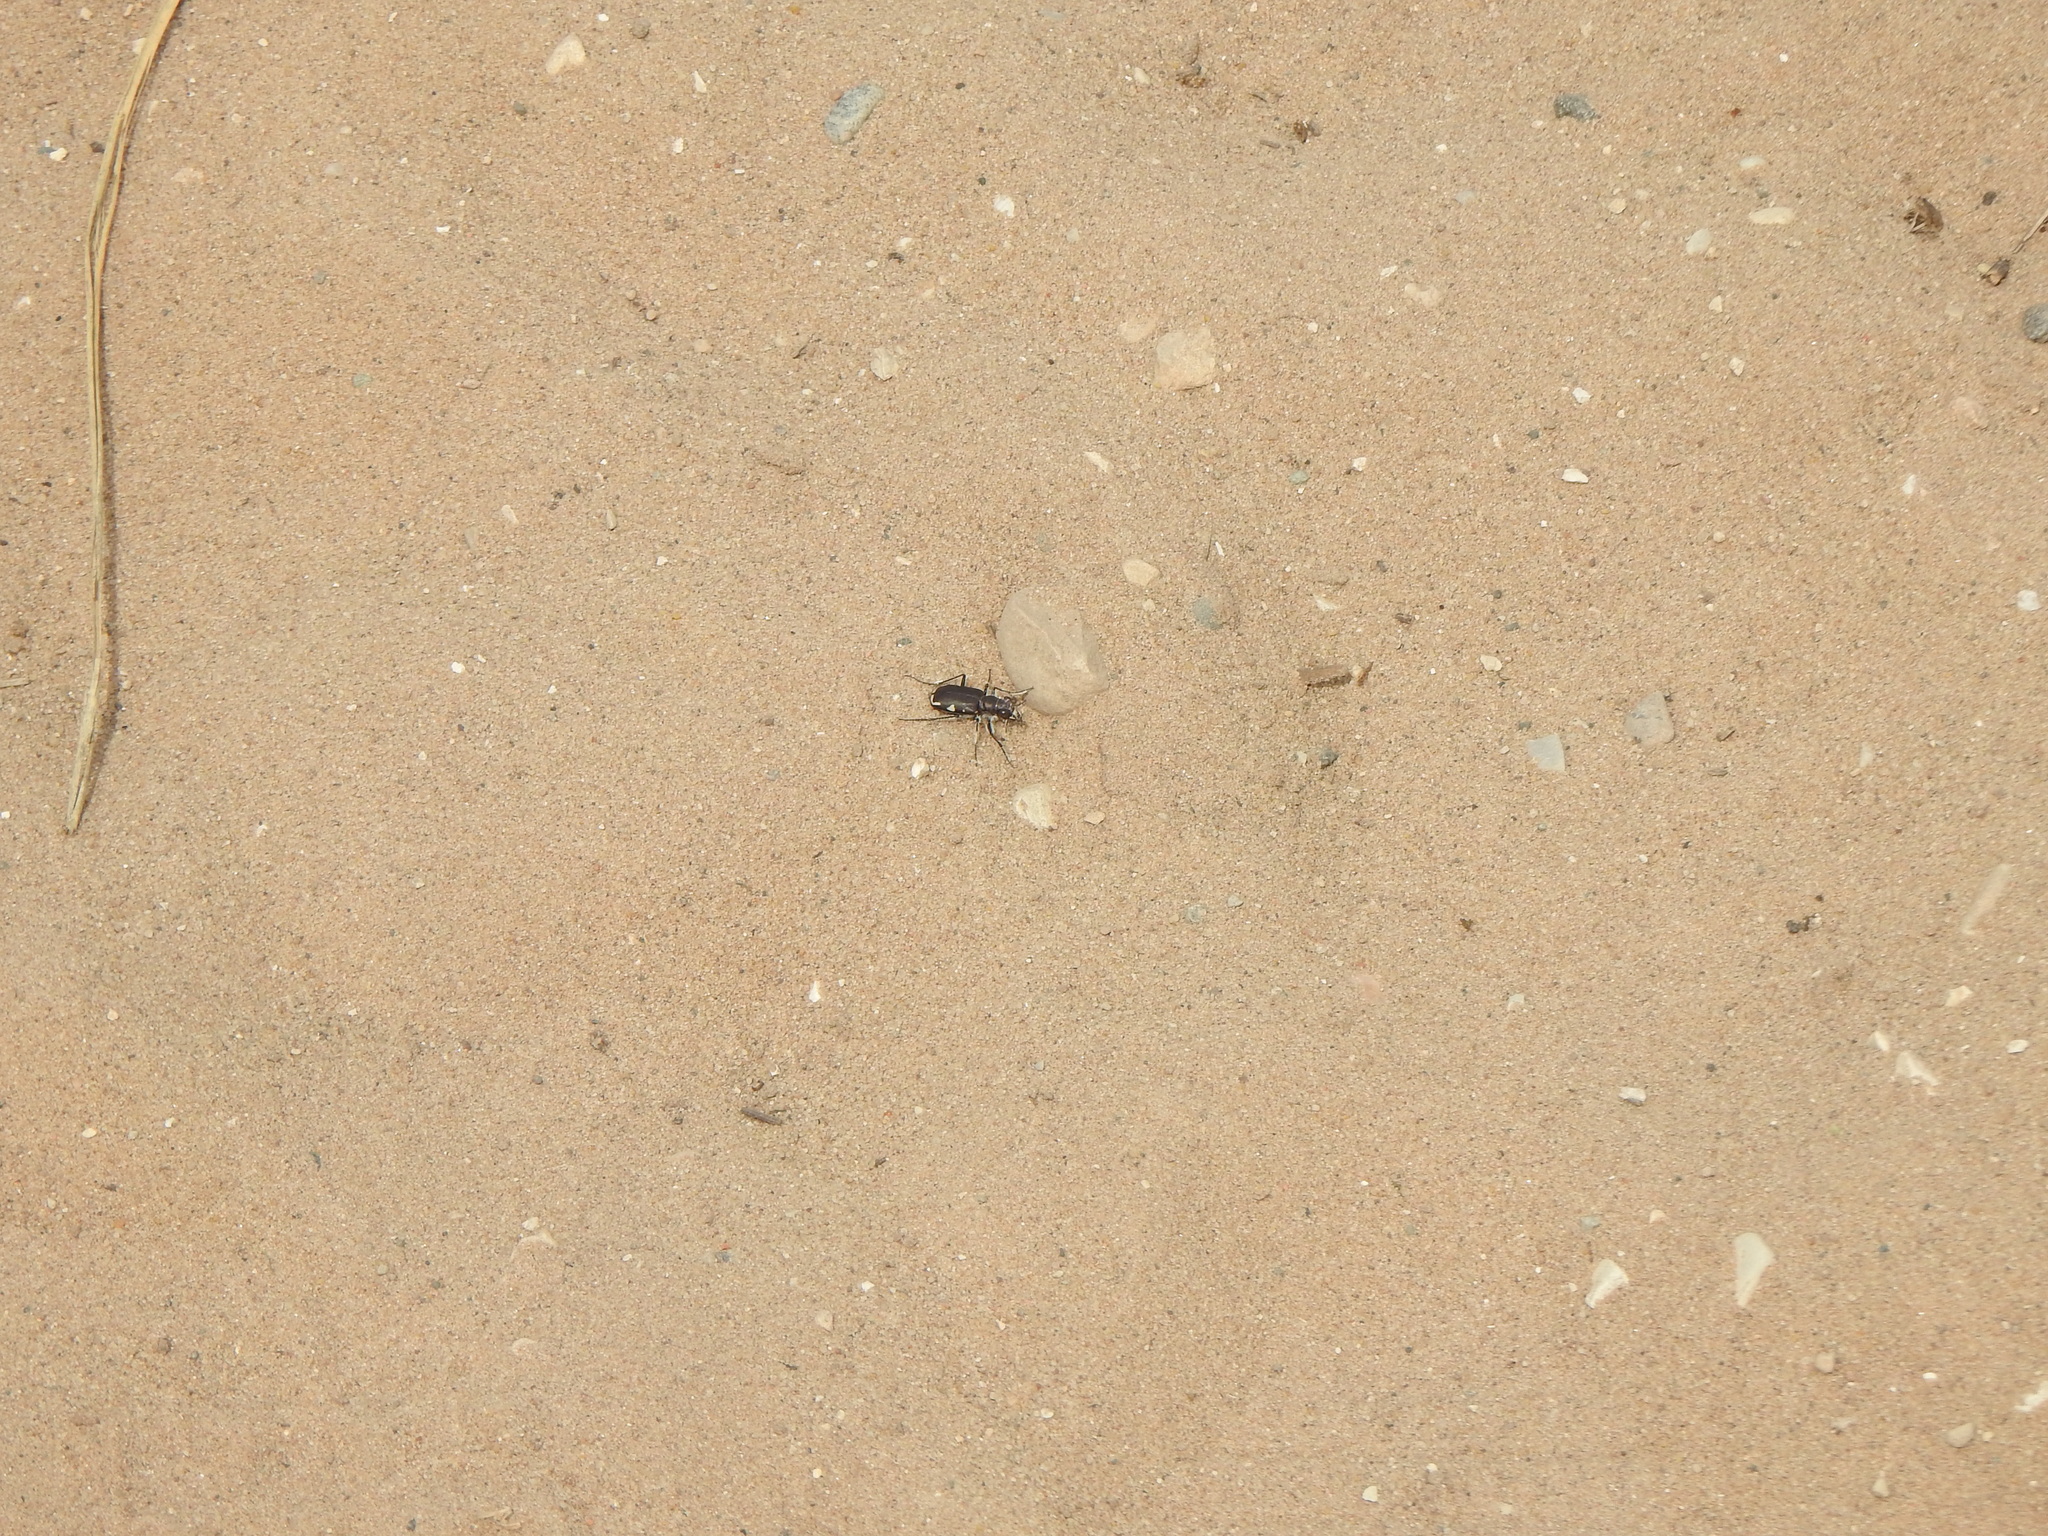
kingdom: Animalia
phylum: Arthropoda
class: Insecta
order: Coleoptera
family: Carabidae
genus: Cicindela
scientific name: Cicindela scutellaris
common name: Festive tiger beetle
